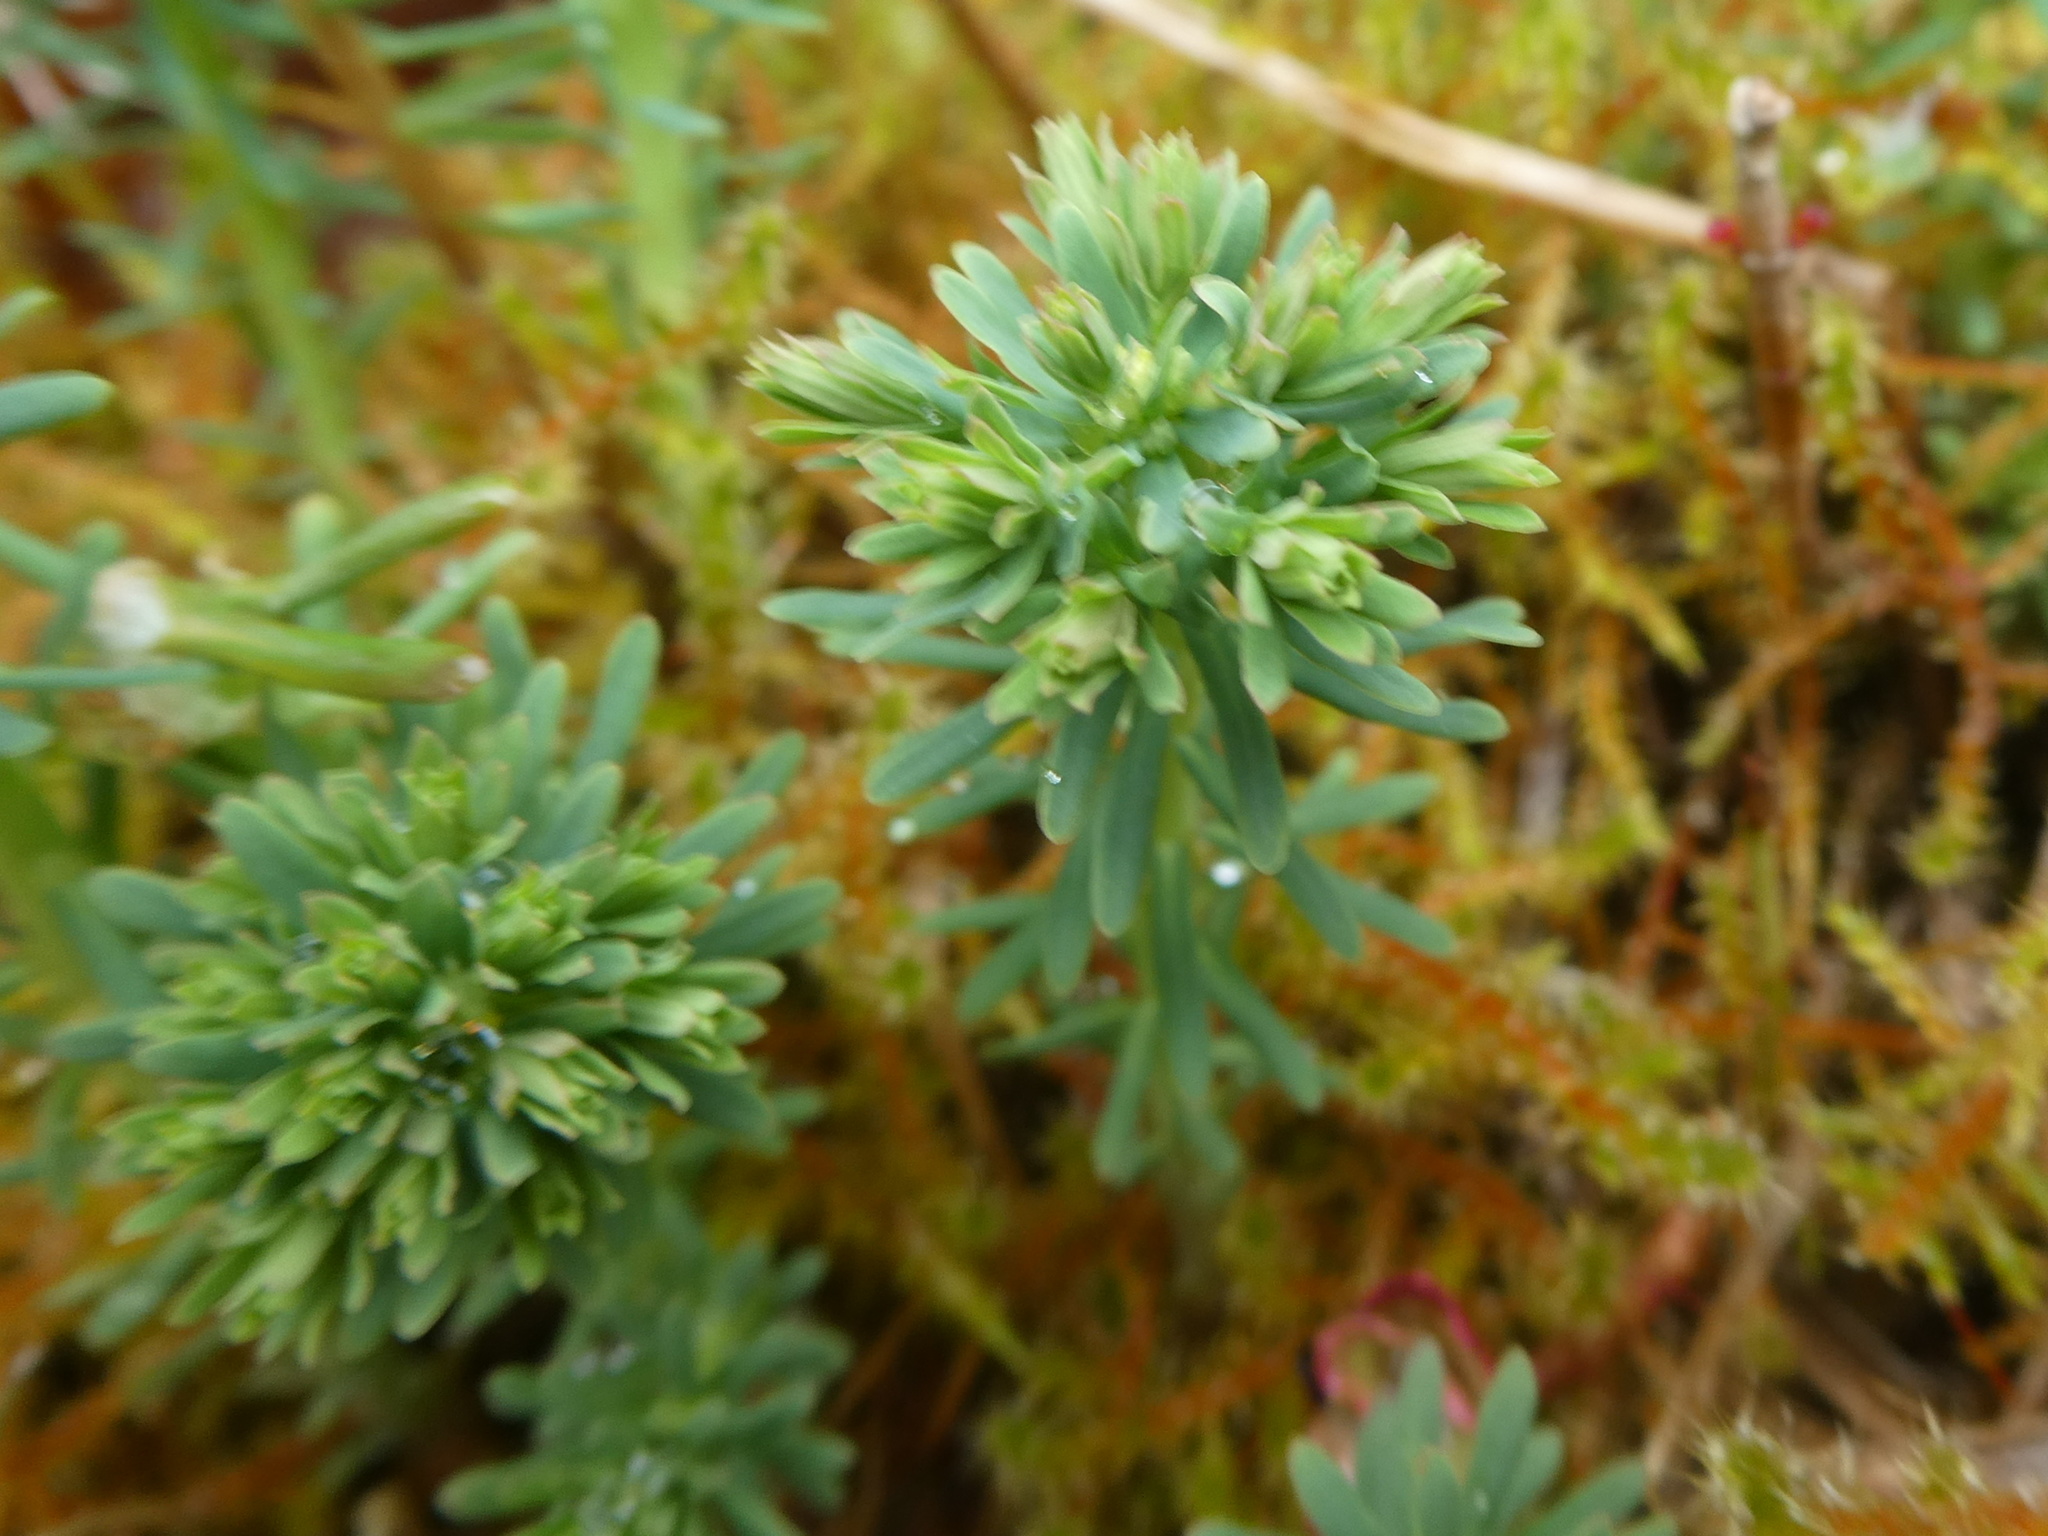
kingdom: Plantae
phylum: Tracheophyta
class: Magnoliopsida
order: Malpighiales
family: Euphorbiaceae
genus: Euphorbia
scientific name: Euphorbia cyparissias
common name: Cypress spurge
